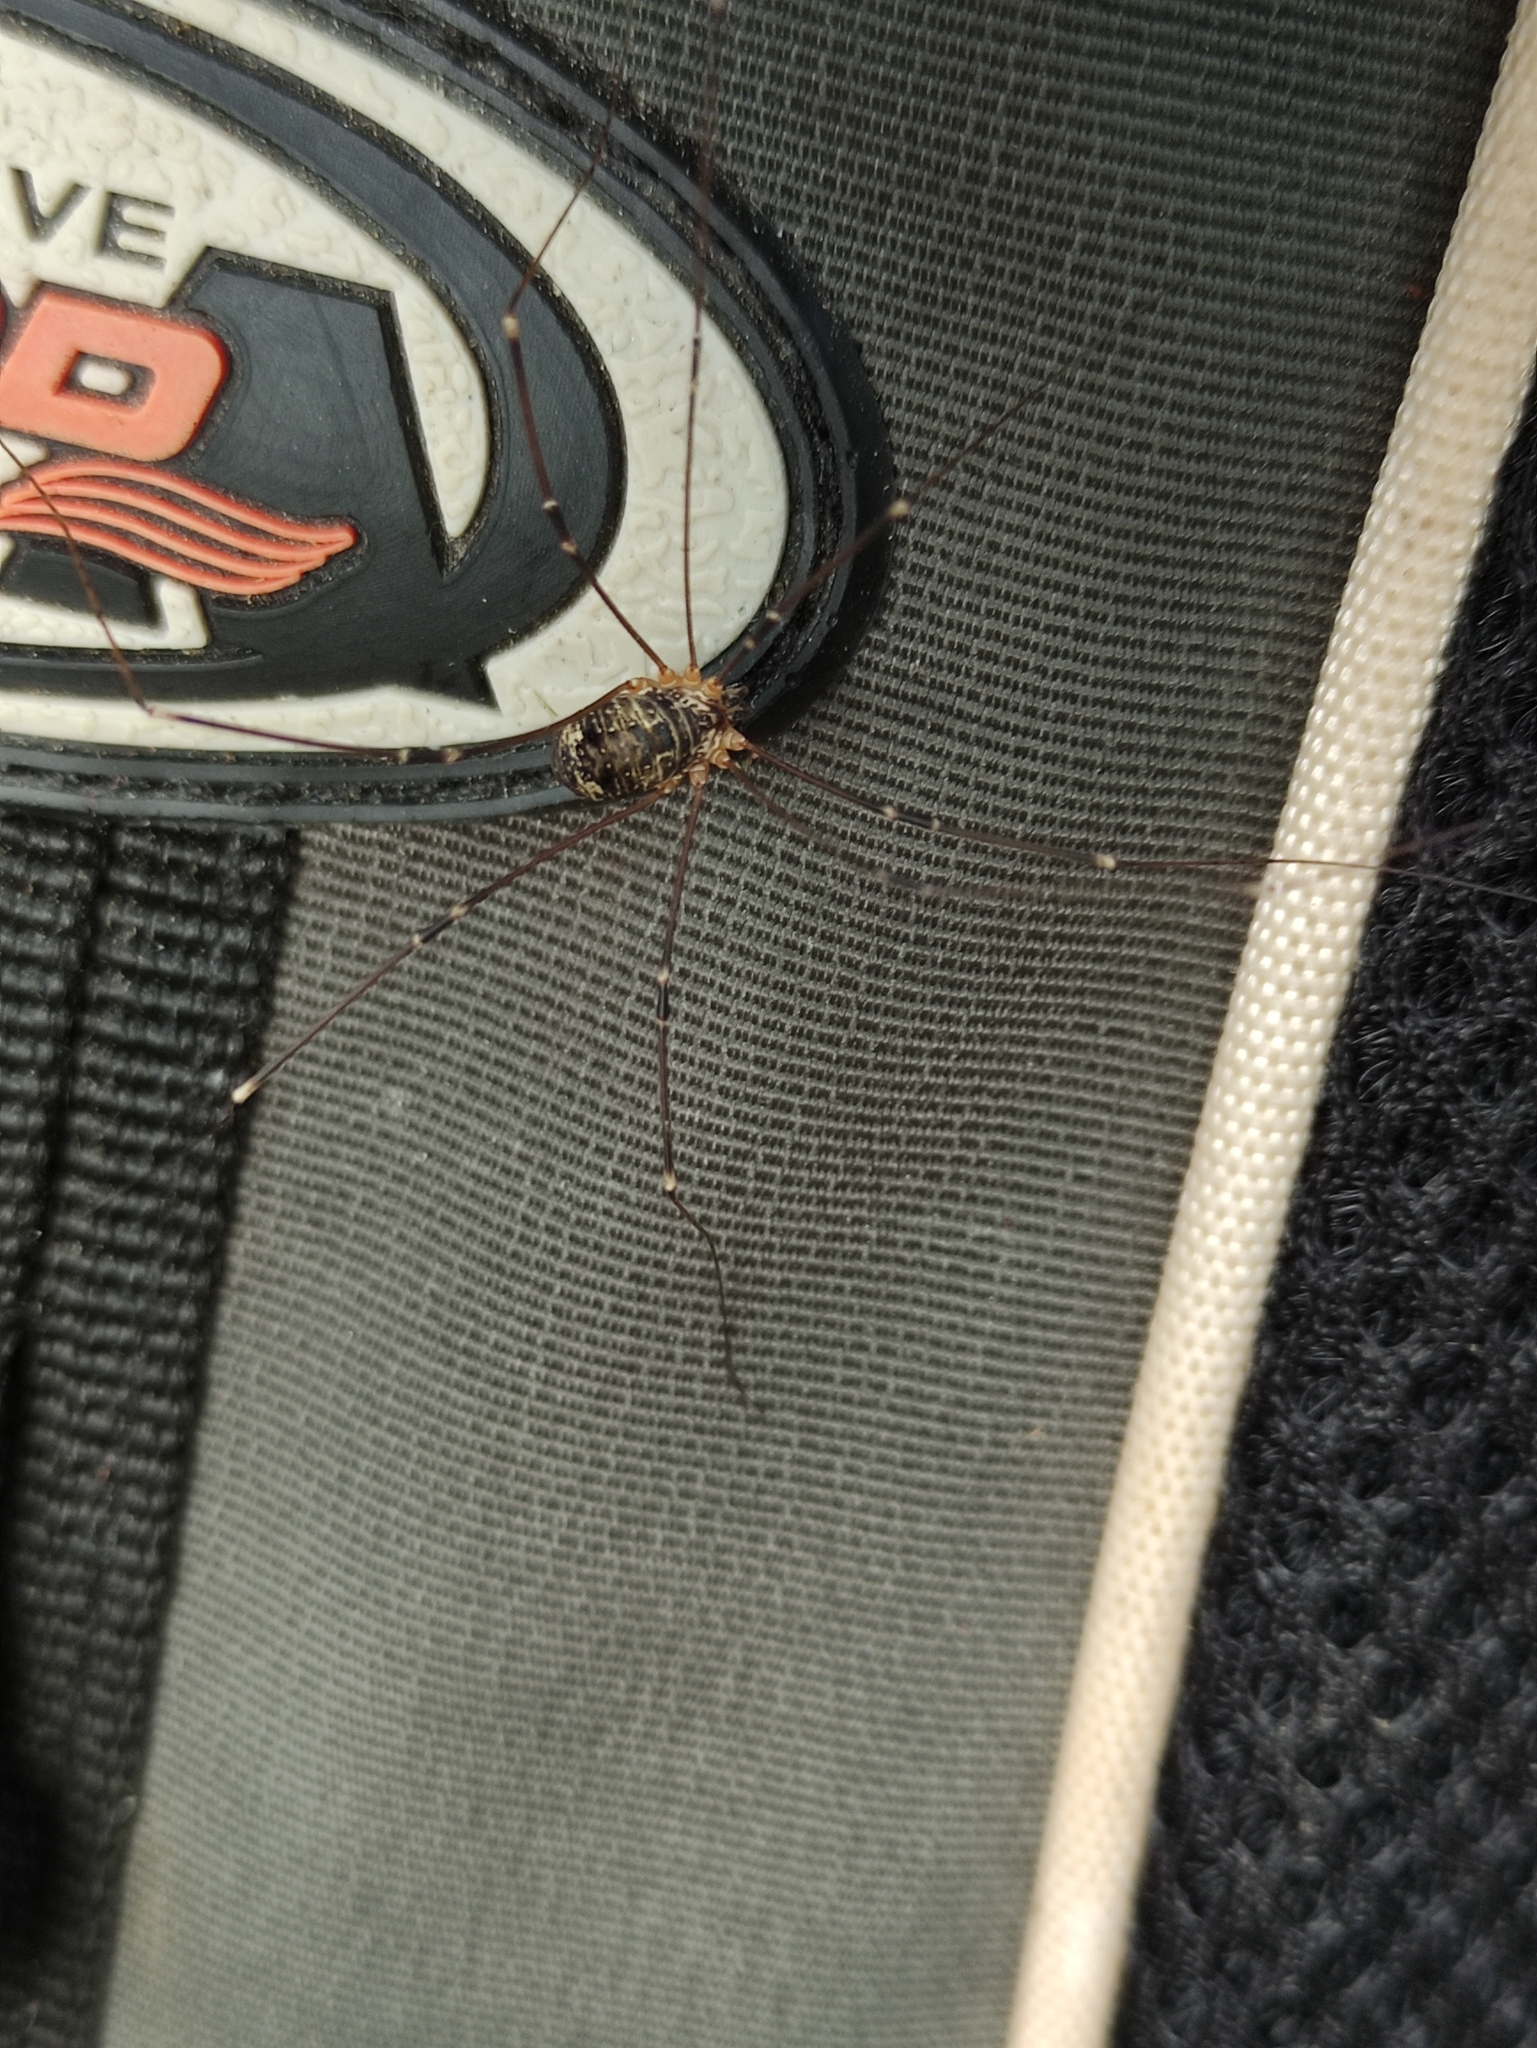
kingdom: Animalia
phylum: Arthropoda
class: Arachnida
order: Opiliones
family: Sclerosomatidae
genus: Leiobunum
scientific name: Leiobunum gracile
